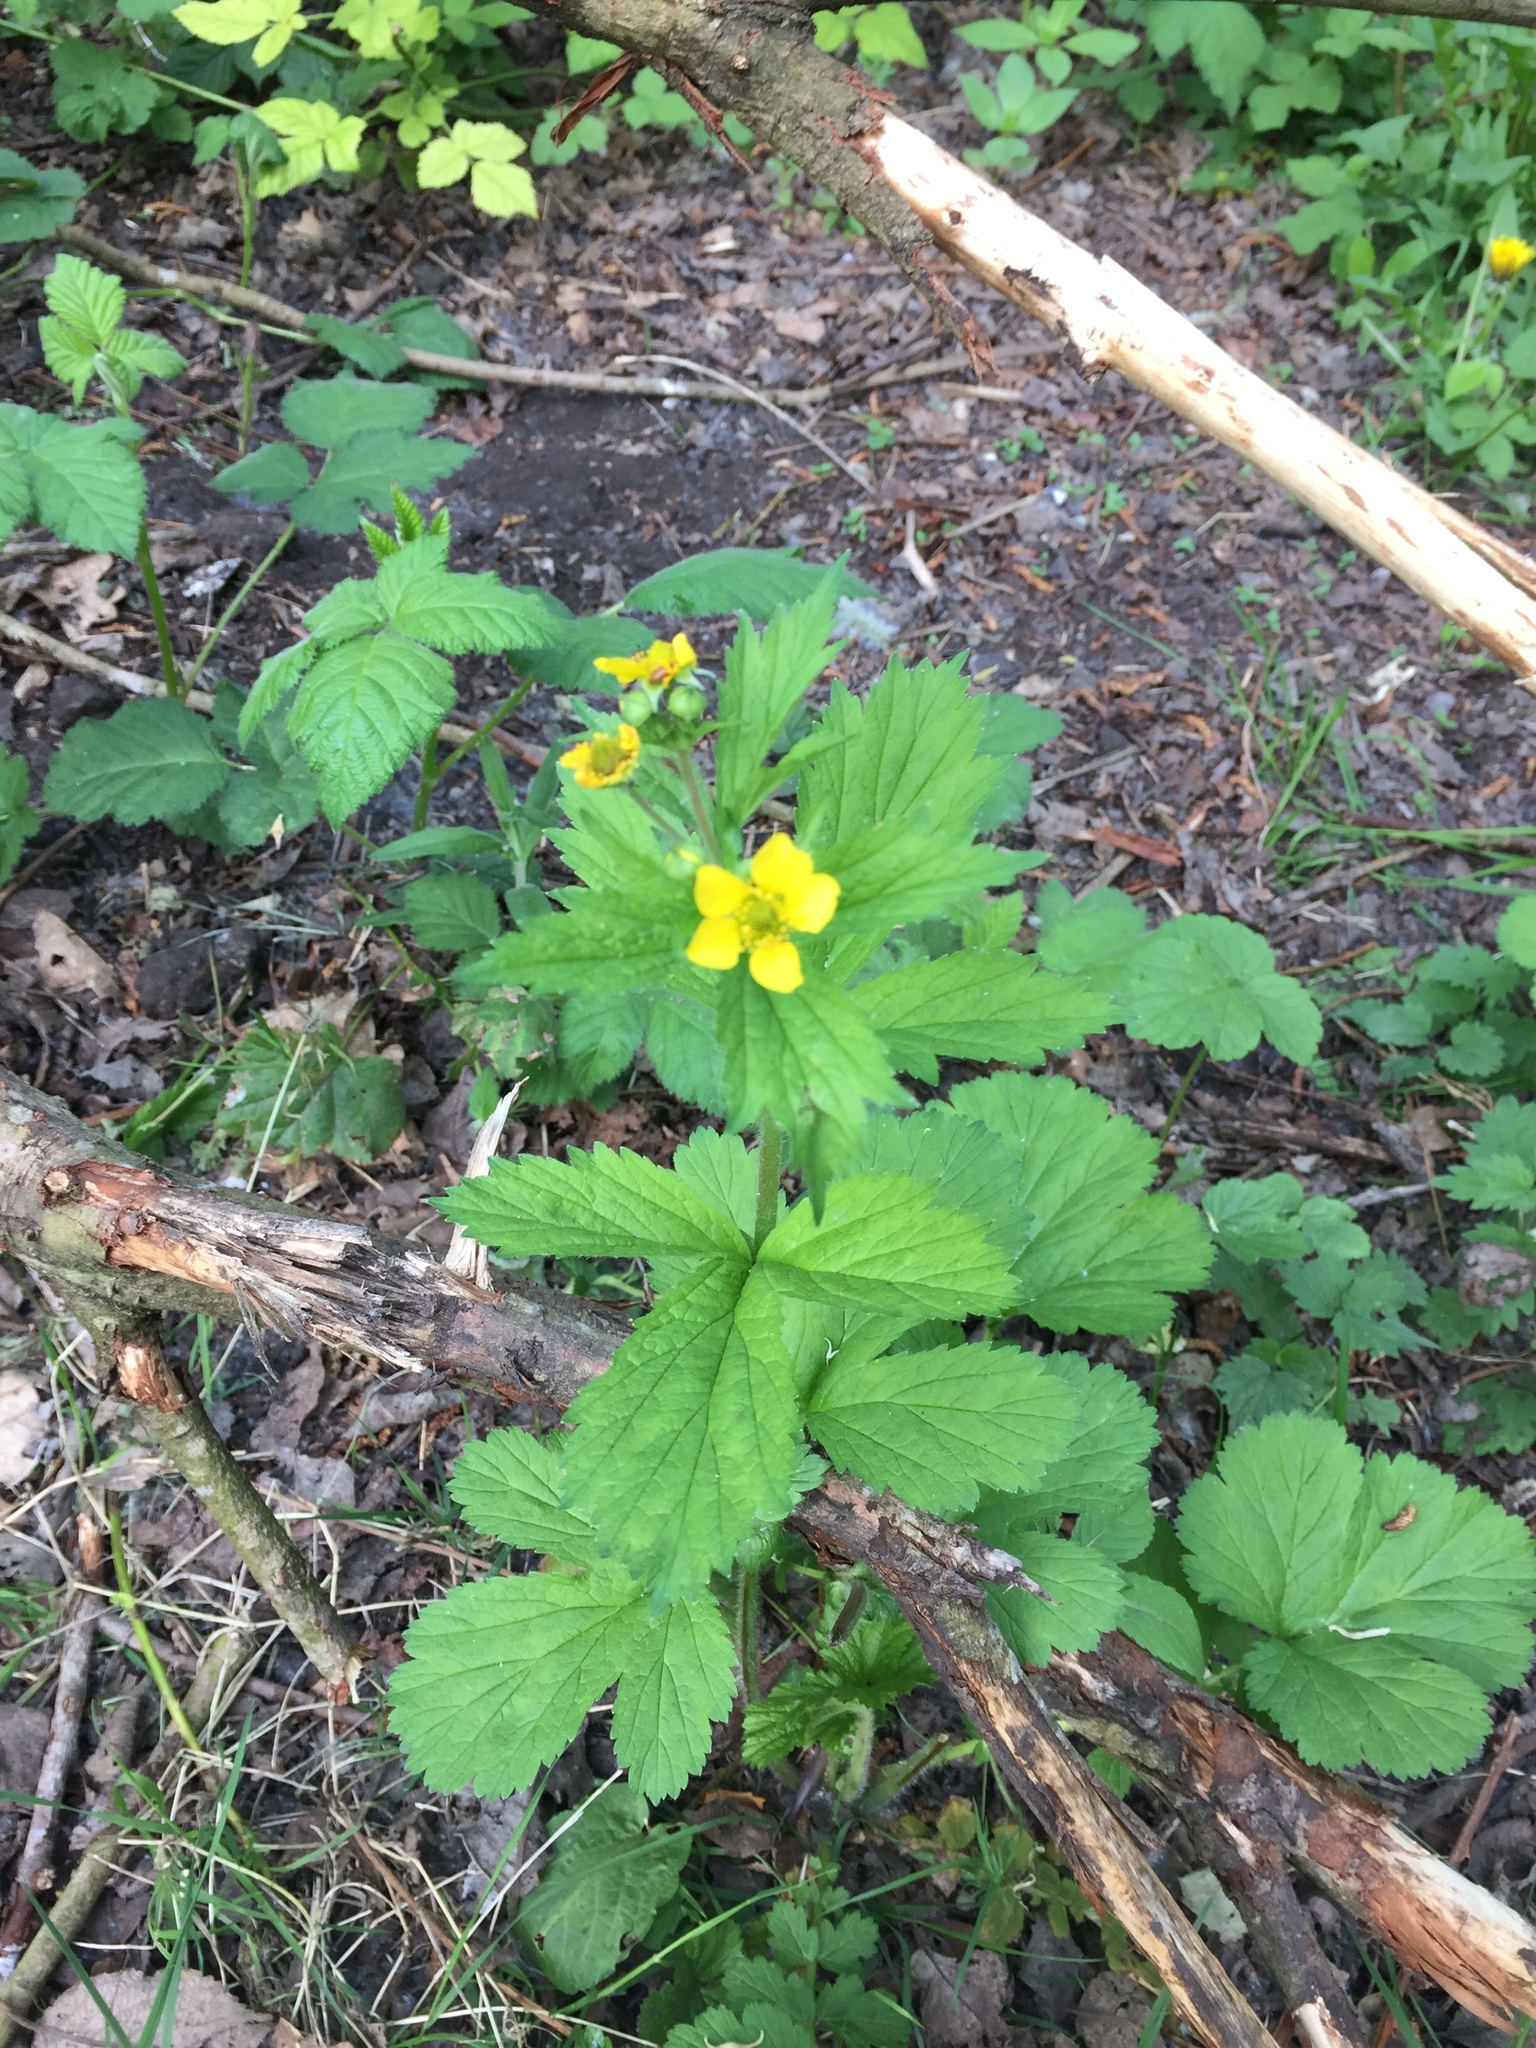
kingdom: Plantae
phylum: Tracheophyta
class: Magnoliopsida
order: Rosales
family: Rosaceae
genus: Geum
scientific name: Geum urbanum
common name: Wood avens
